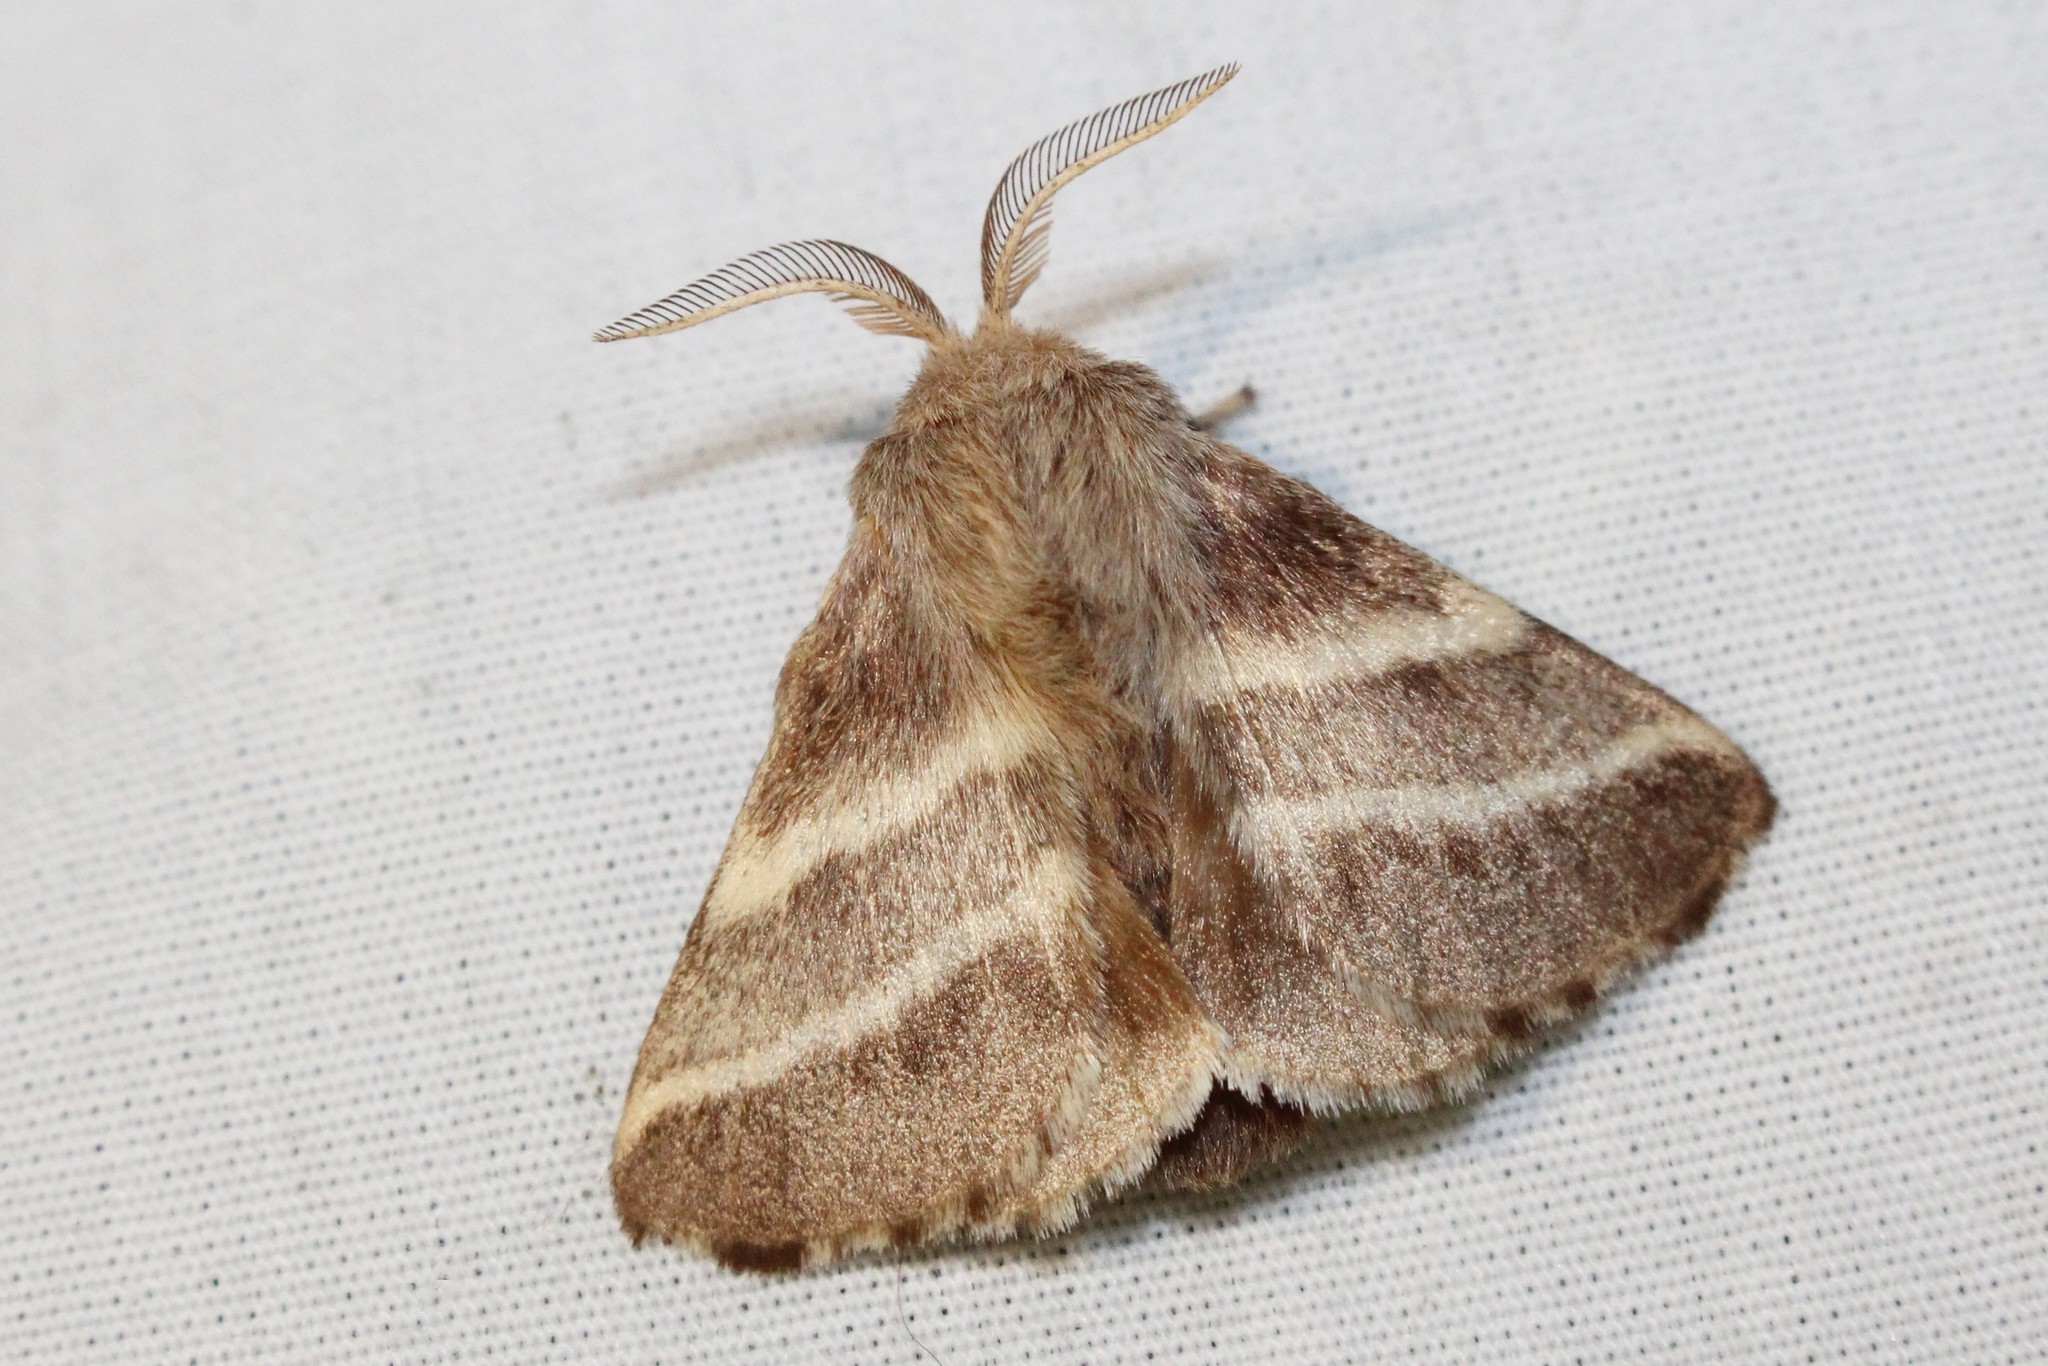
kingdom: Animalia
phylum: Arthropoda
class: Insecta
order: Lepidoptera
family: Lasiocampidae
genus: Malacosoma
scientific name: Malacosoma americana
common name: Eastern tent caterpillar moth
